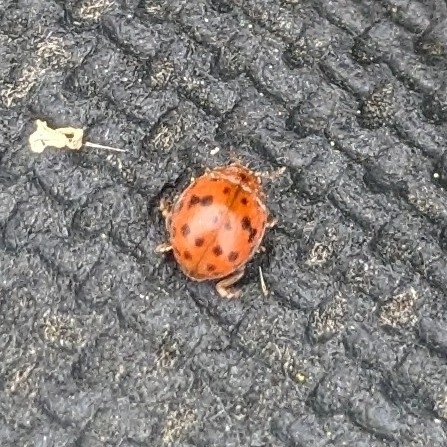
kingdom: Animalia
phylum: Arthropoda
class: Insecta
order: Coleoptera
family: Coccinellidae
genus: Subcoccinella
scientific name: Subcoccinella vigintiquatuorpunctata
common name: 24-spot ladybird
